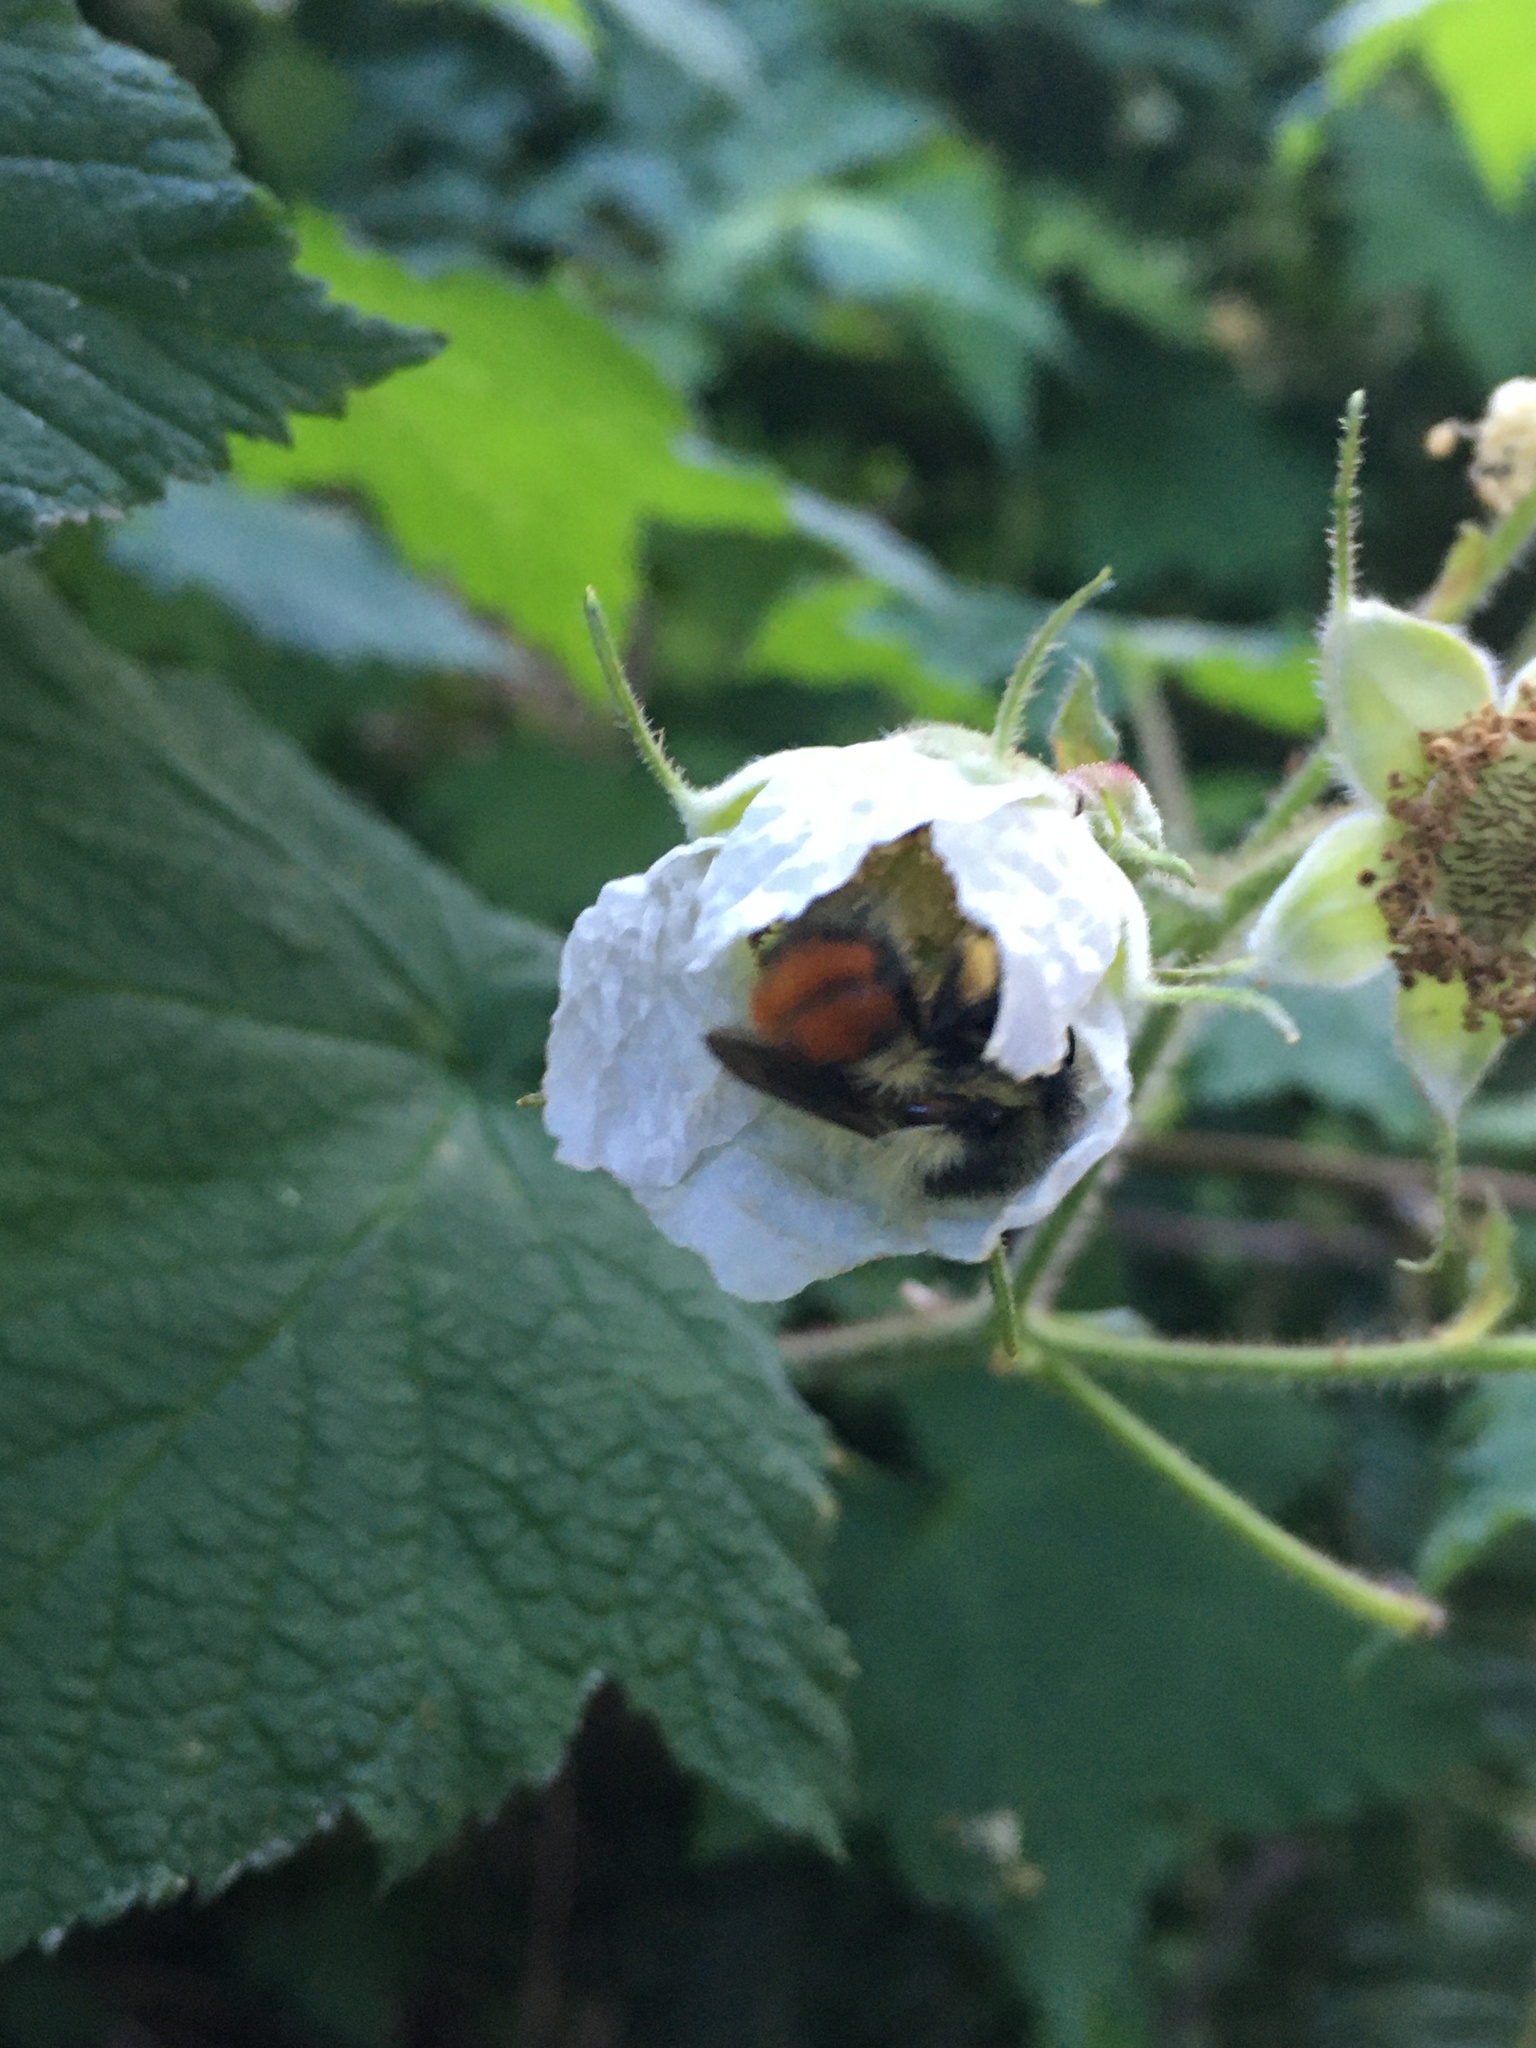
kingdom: Animalia
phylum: Arthropoda
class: Insecta
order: Hymenoptera
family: Apidae
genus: Bombus
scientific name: Bombus melanopygus
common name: Black tail bumble bee
